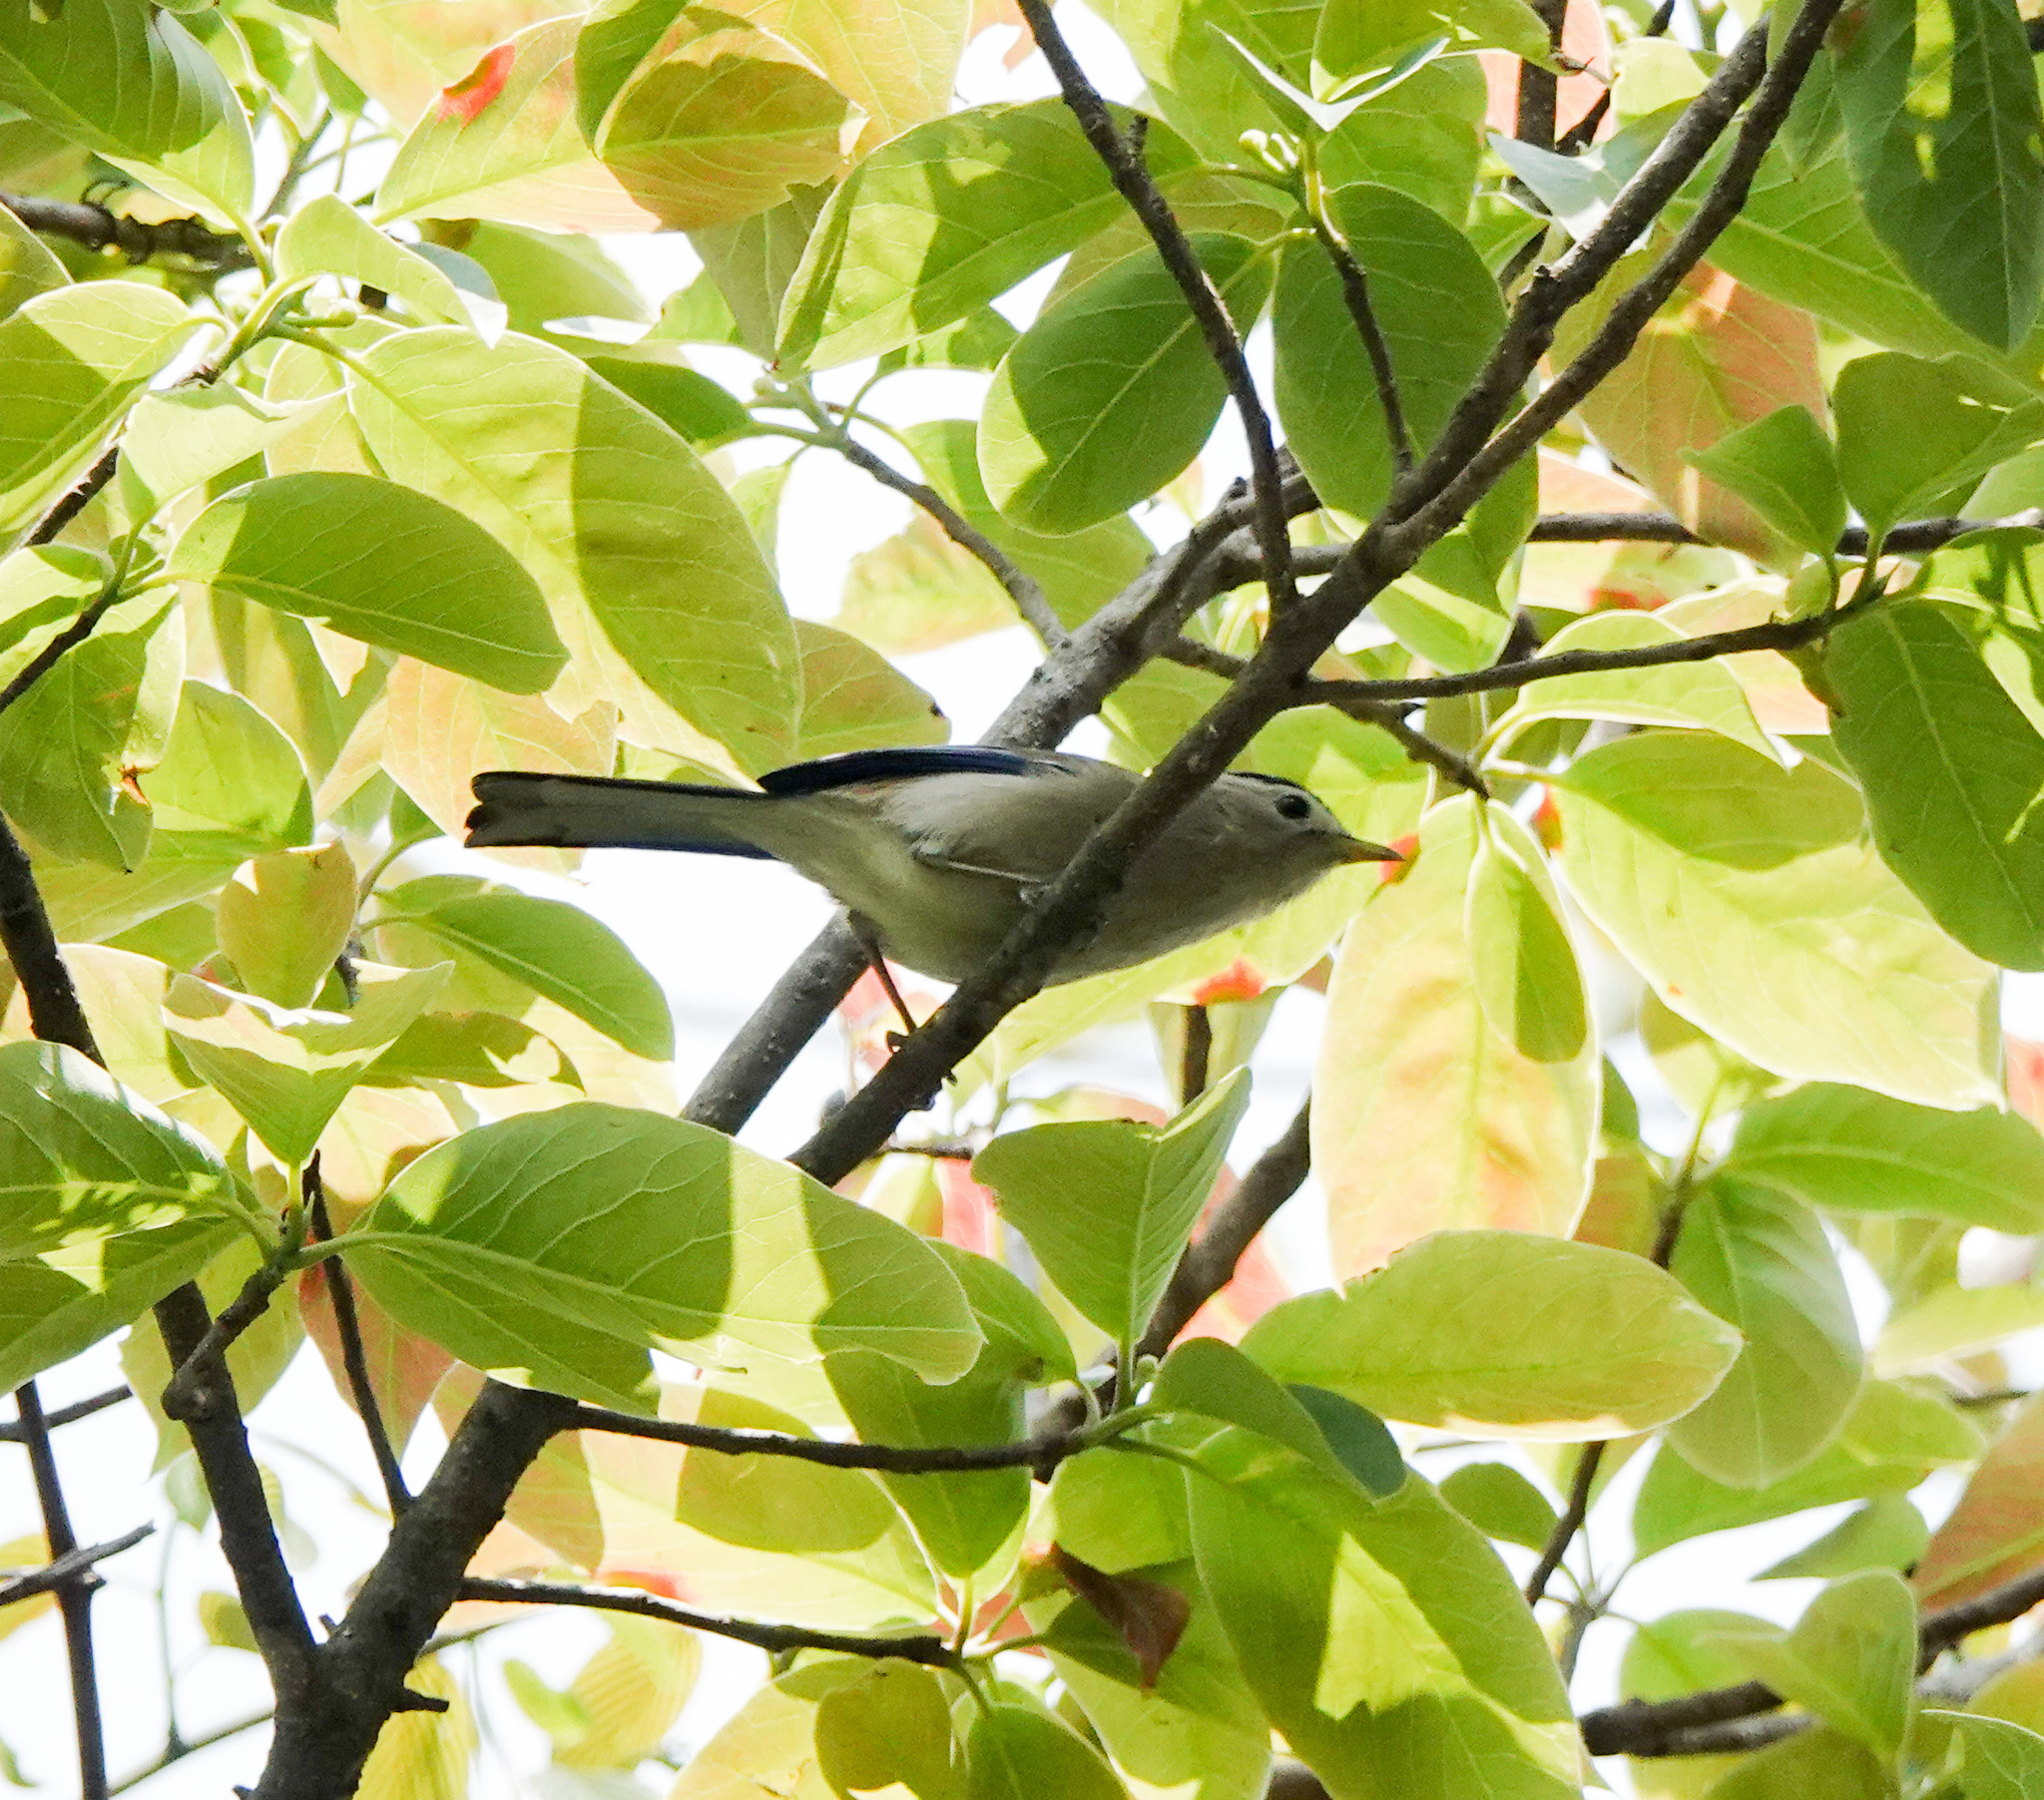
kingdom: Animalia
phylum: Chordata
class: Aves
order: Passeriformes
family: Leiothrichidae
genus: Minla
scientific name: Minla cyanouroptera
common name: Blue-winged minla
